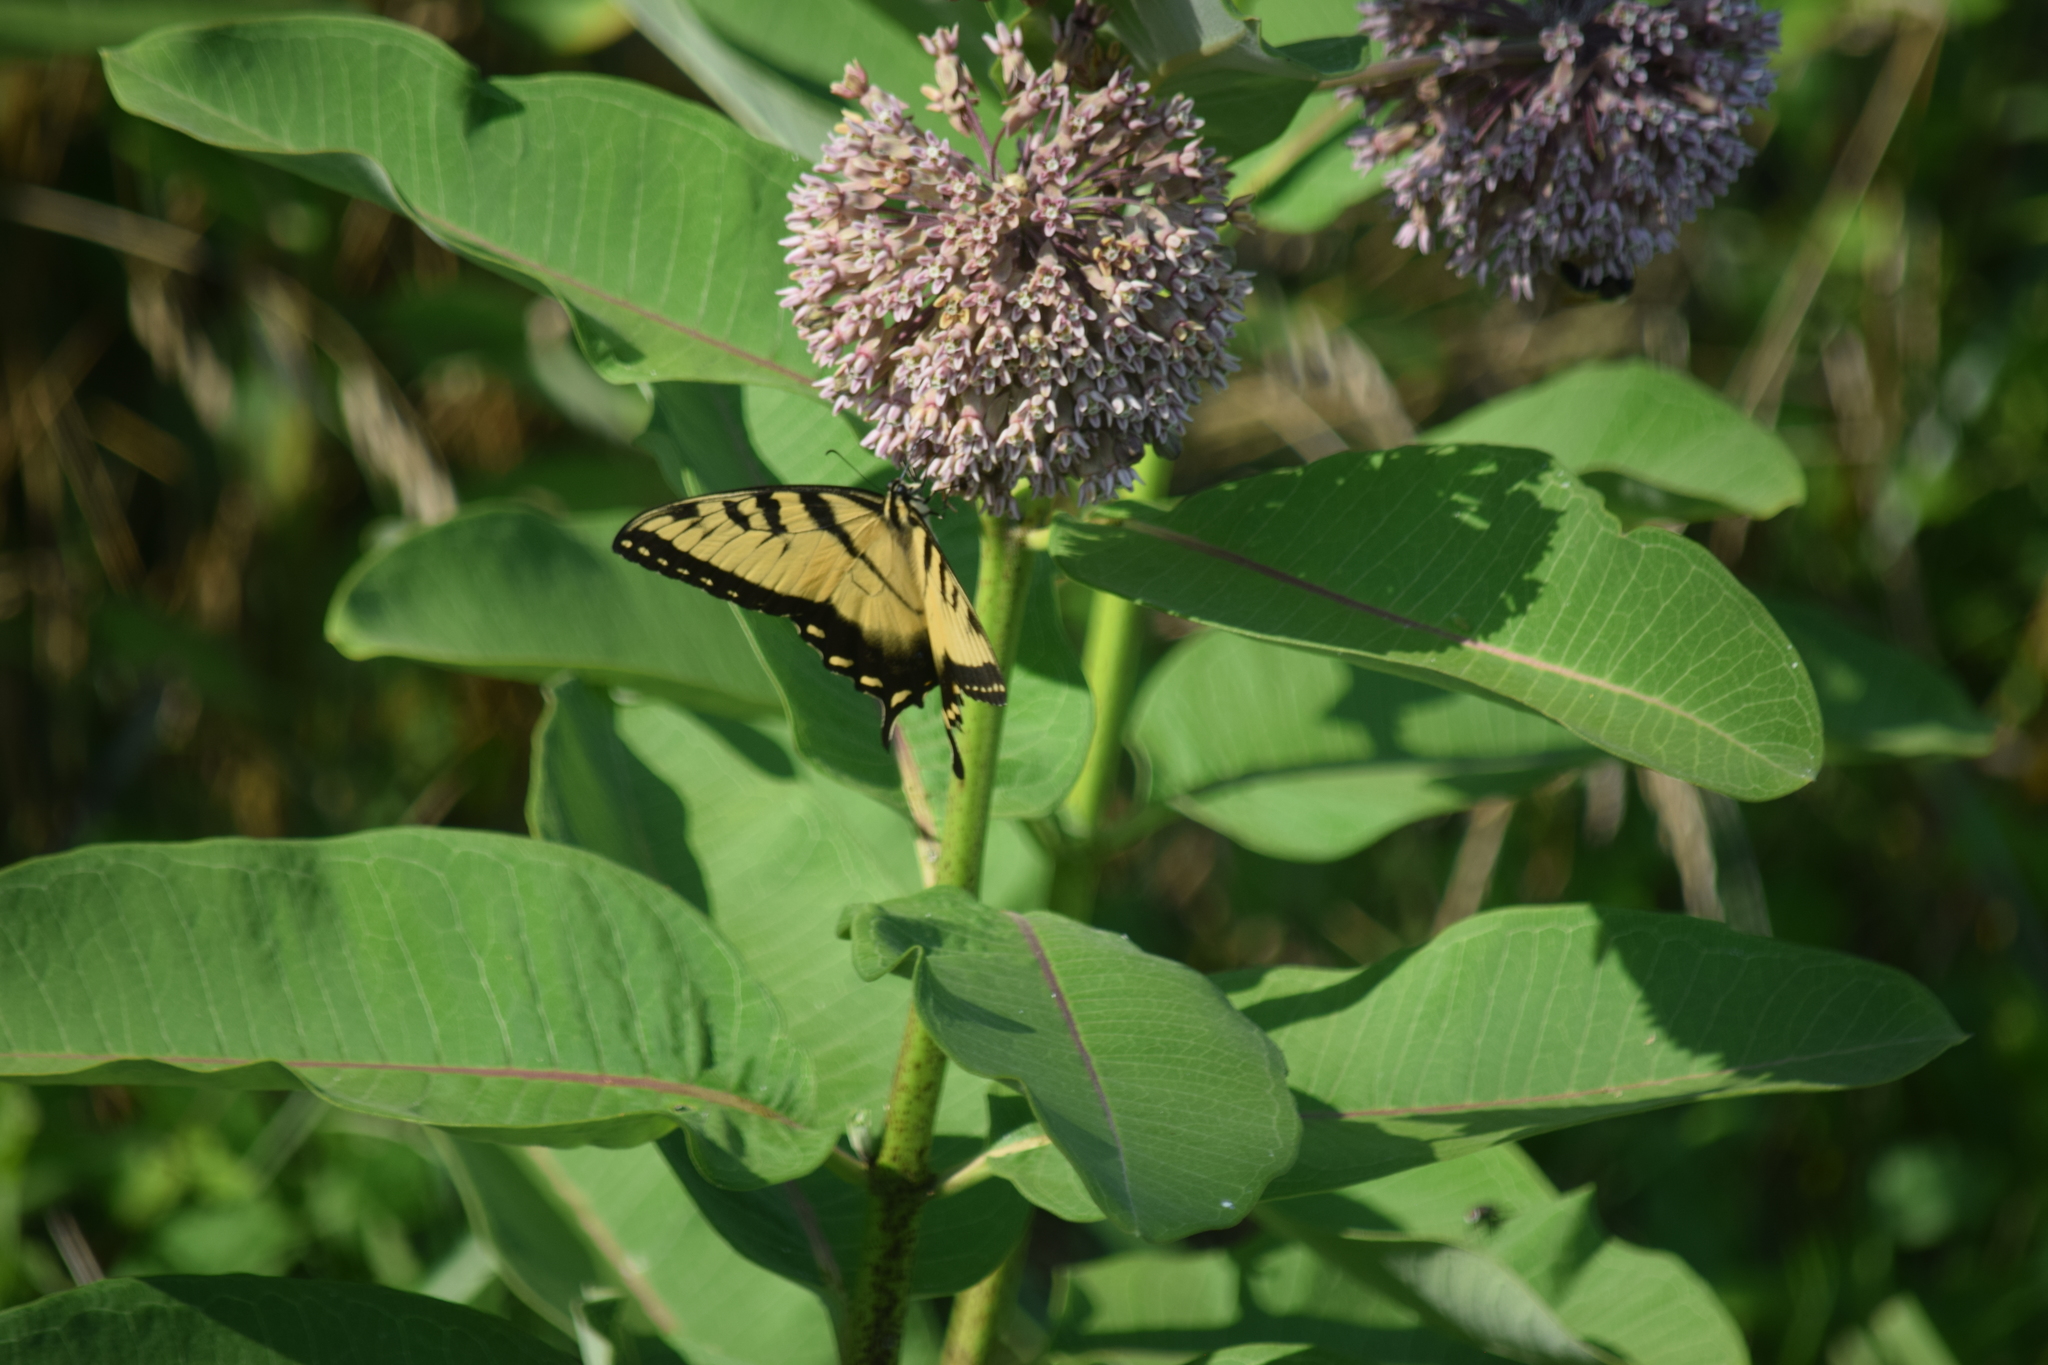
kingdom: Animalia
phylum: Arthropoda
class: Insecta
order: Lepidoptera
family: Papilionidae
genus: Papilio
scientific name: Papilio glaucus
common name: Tiger swallowtail
